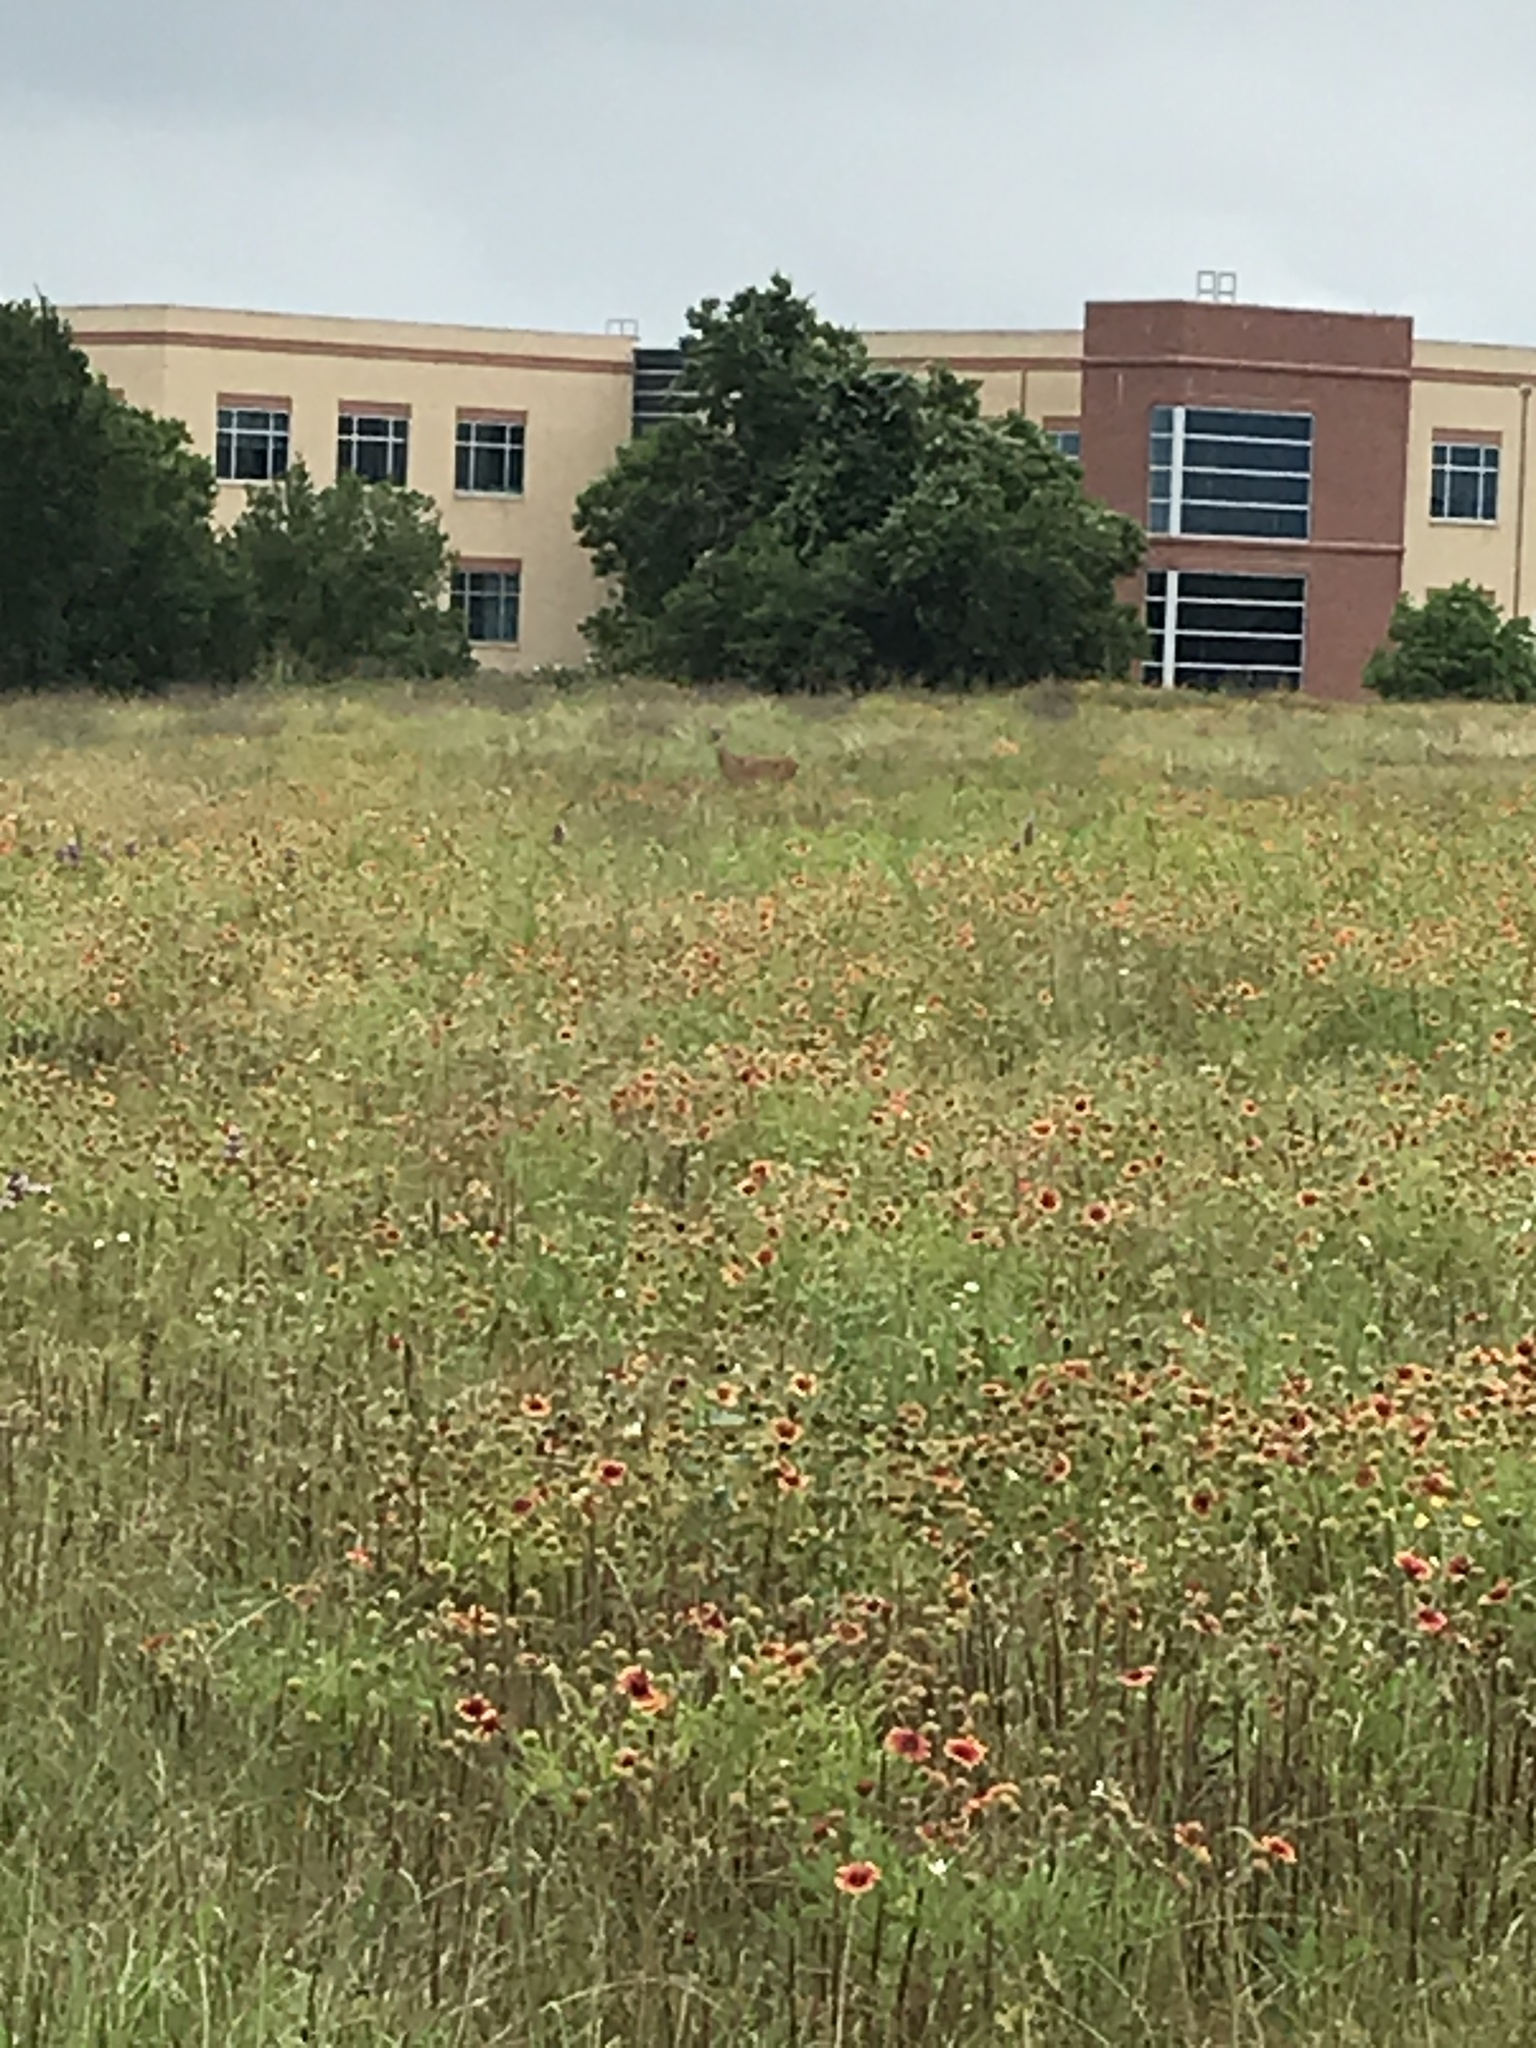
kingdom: Animalia
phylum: Chordata
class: Mammalia
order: Artiodactyla
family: Cervidae
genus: Odocoileus
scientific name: Odocoileus virginianus
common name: White-tailed deer
